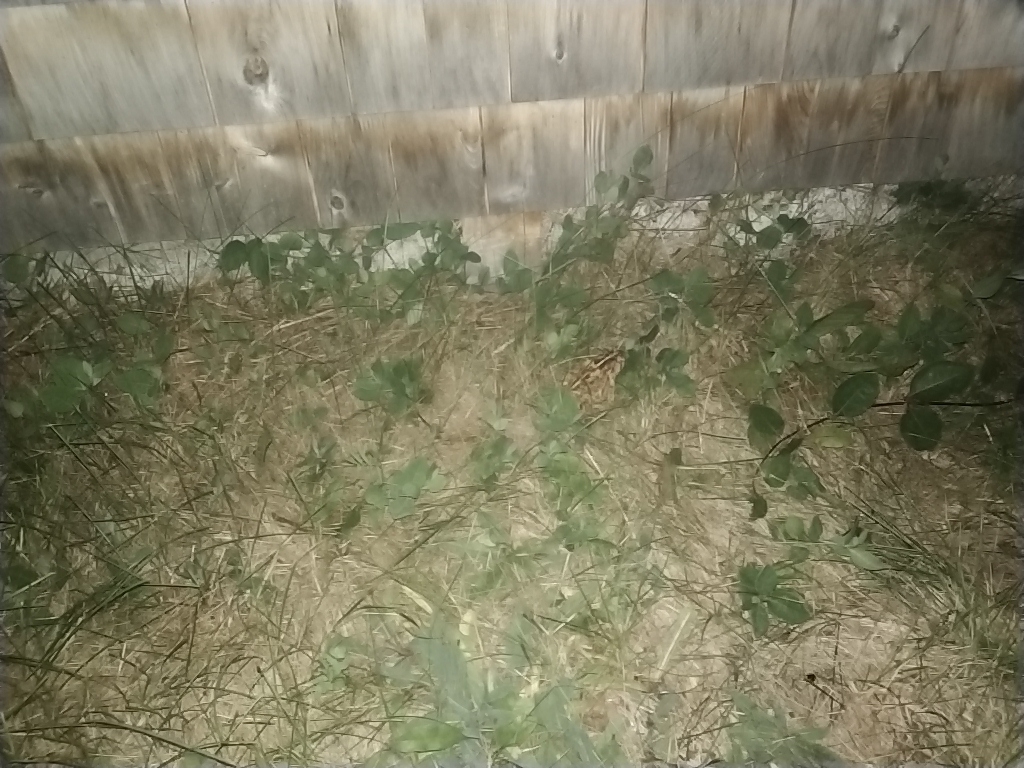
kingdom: Animalia
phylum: Chordata
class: Amphibia
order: Anura
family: Bufonidae
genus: Anaxyrus
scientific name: Anaxyrus americanus
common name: American toad
